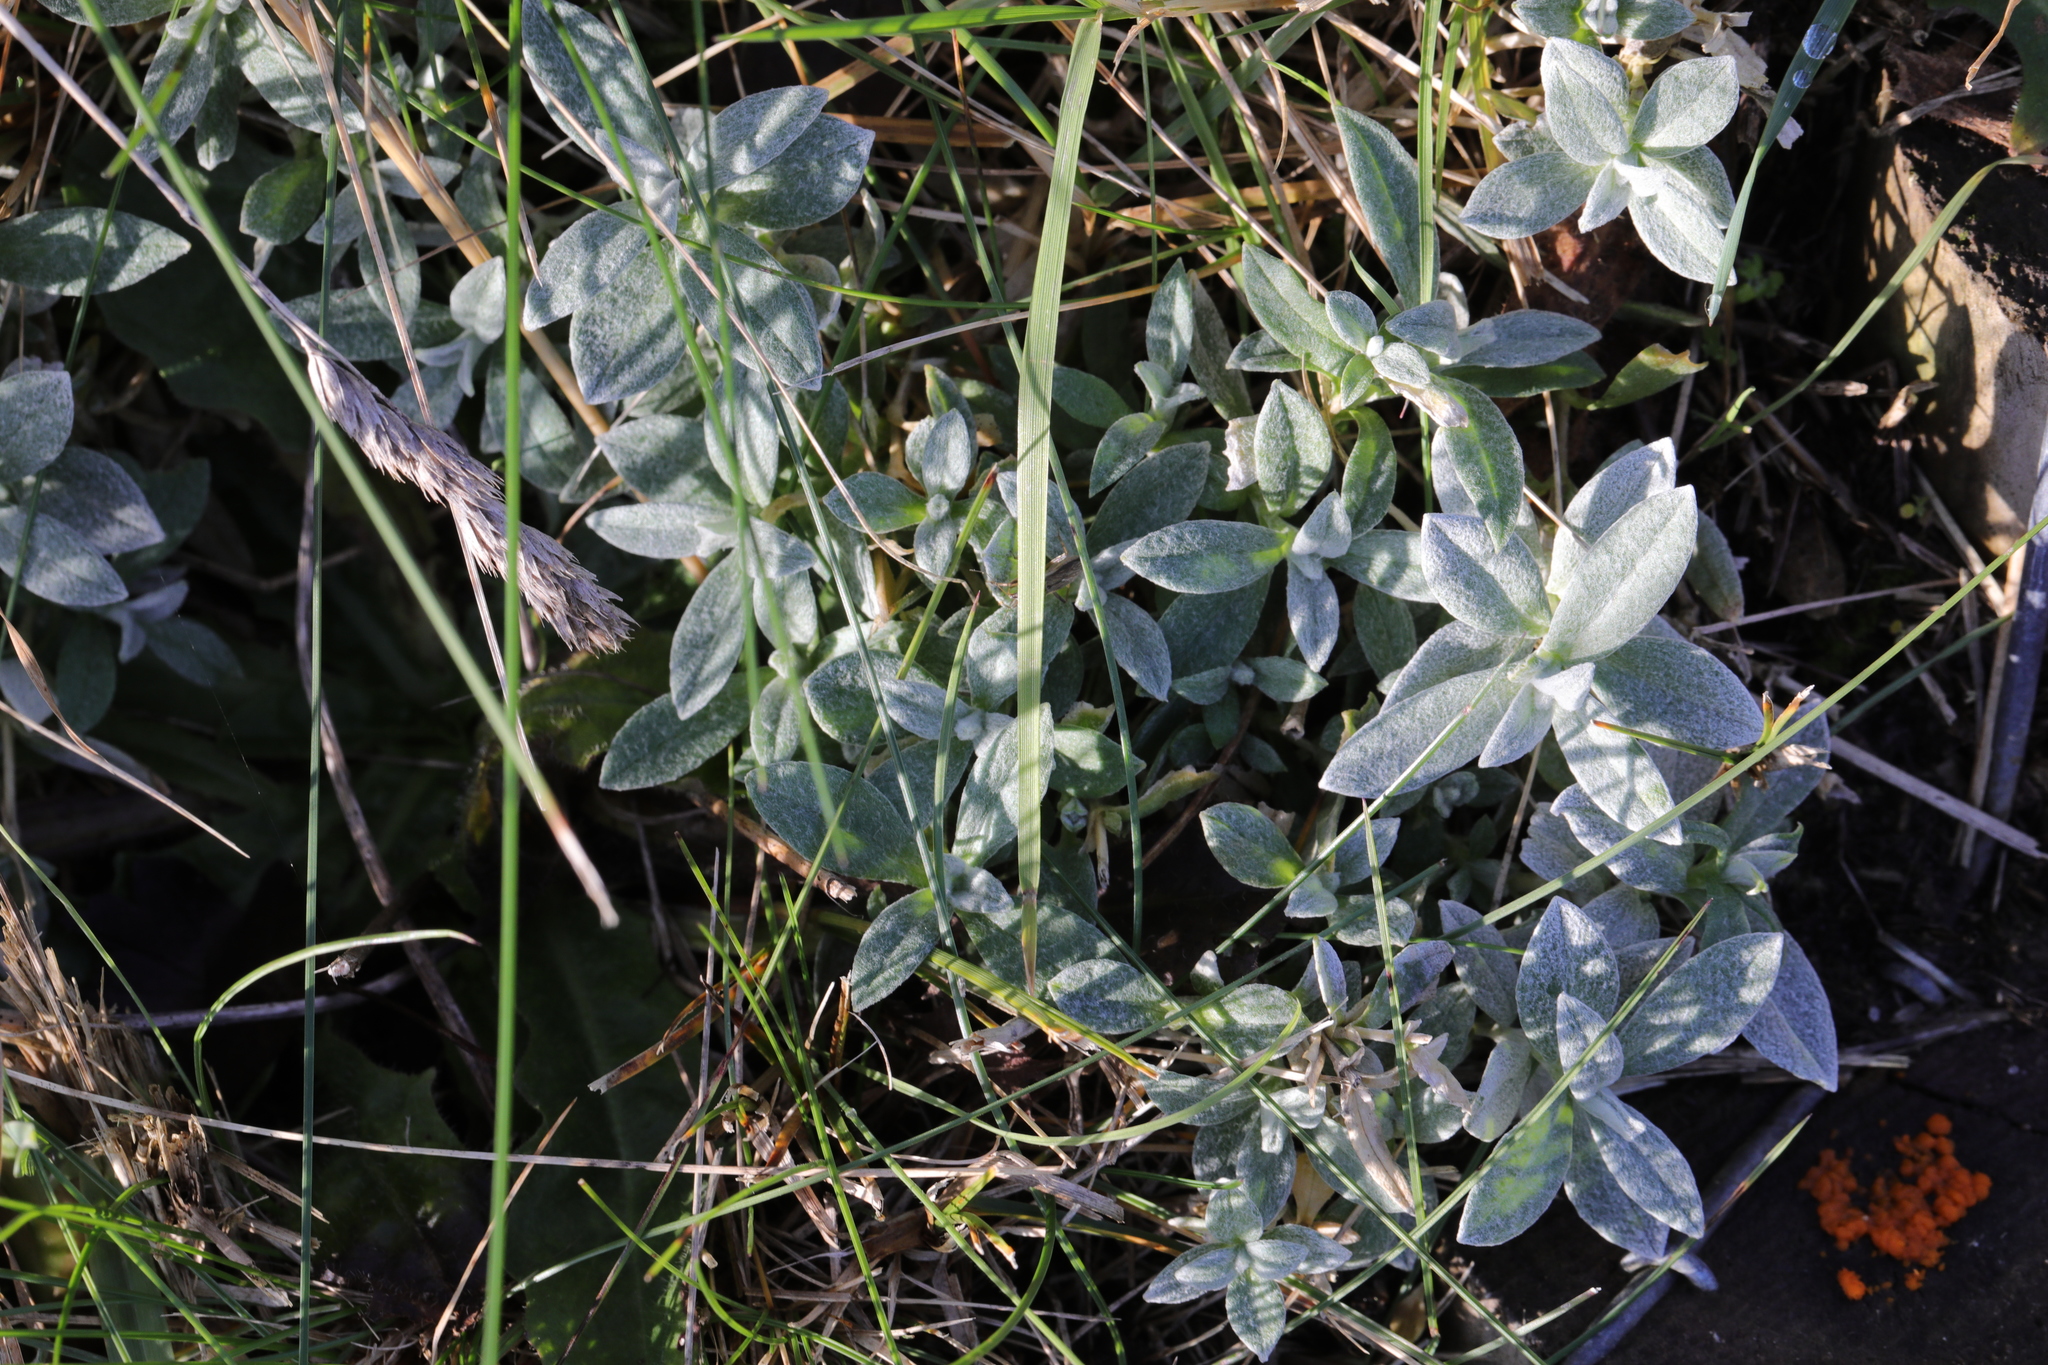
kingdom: Plantae
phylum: Tracheophyta
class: Magnoliopsida
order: Caryophyllales
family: Caryophyllaceae
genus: Cerastium
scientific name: Cerastium tomentosum
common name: Snow-in-summer
